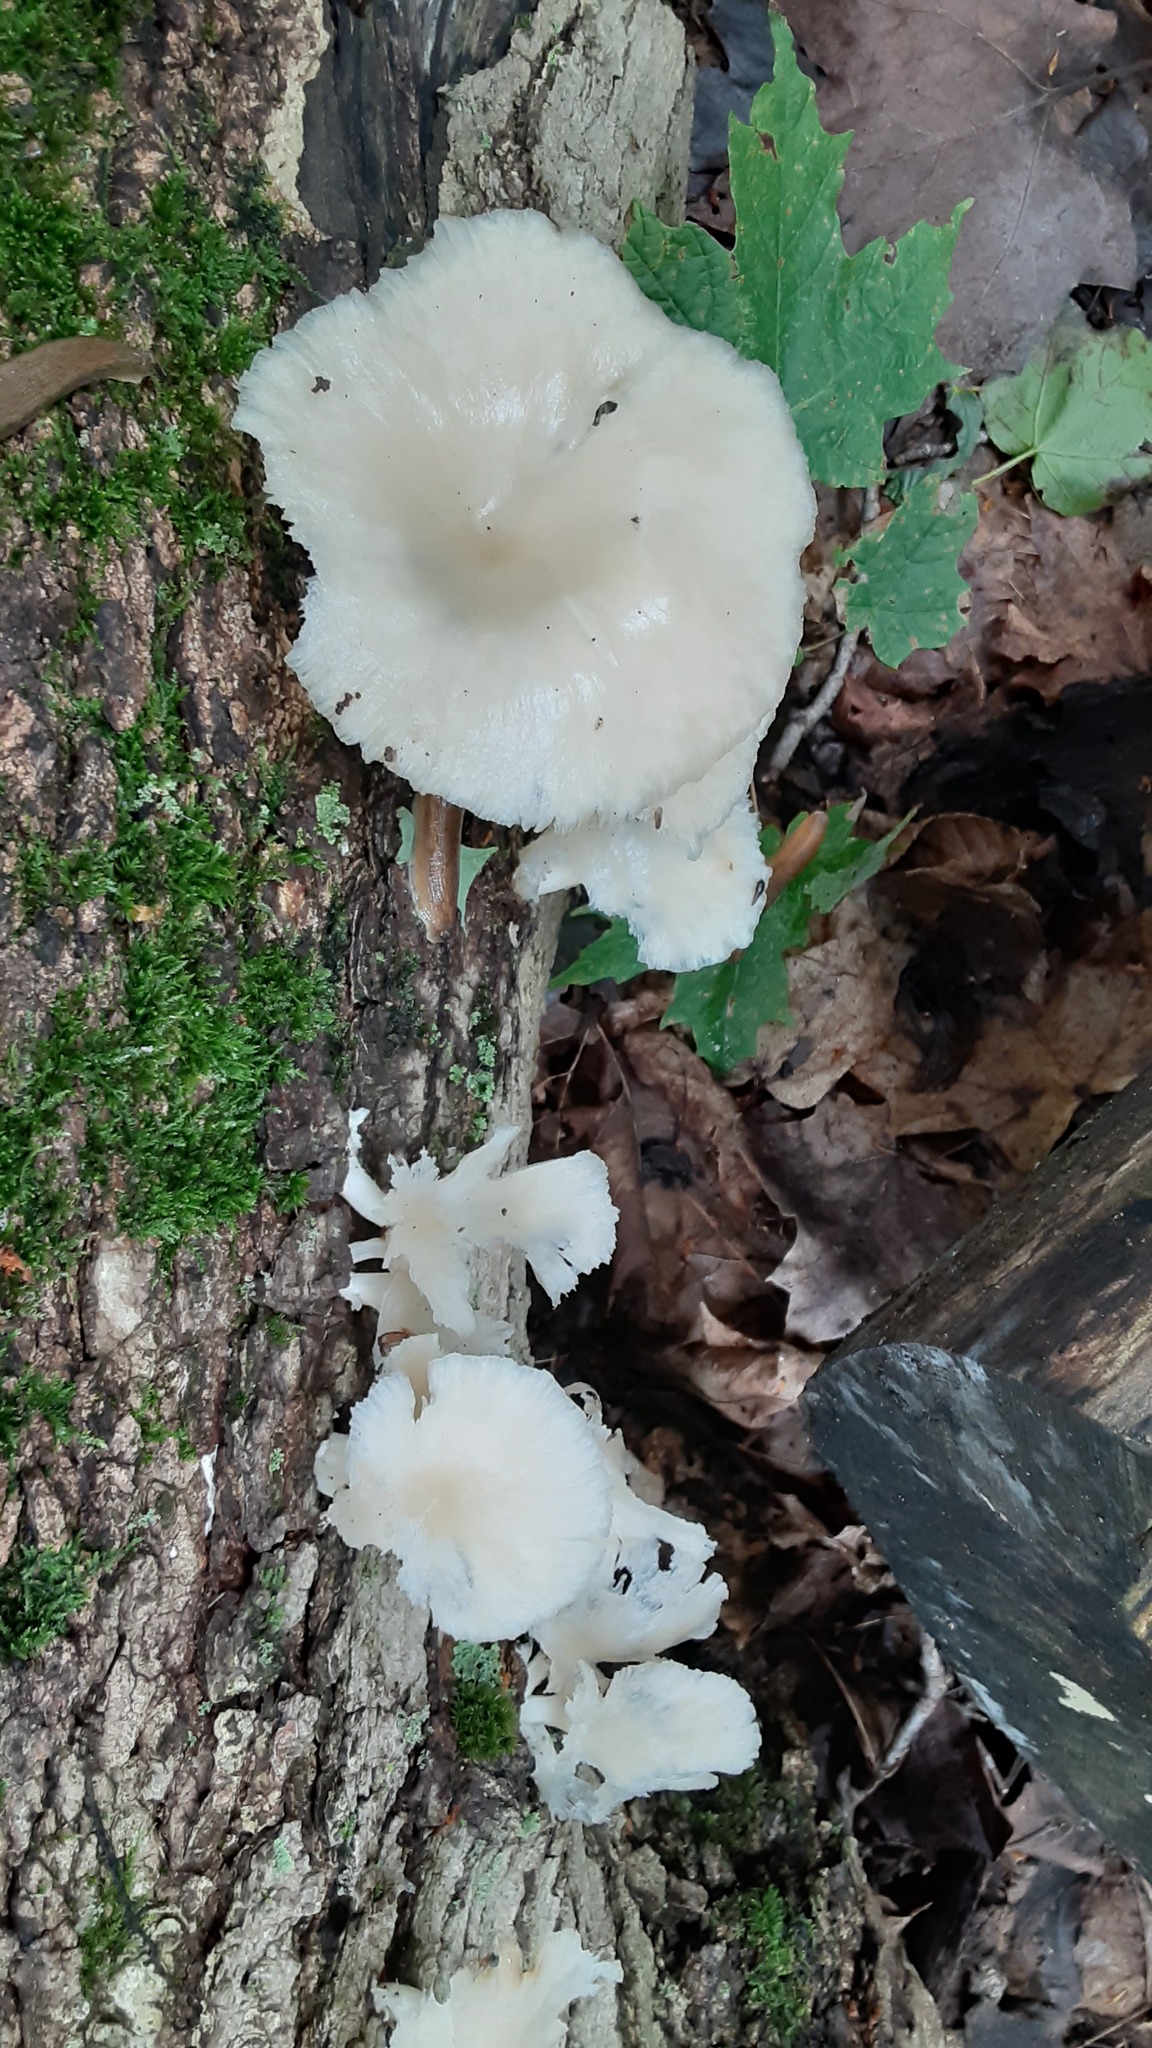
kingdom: Fungi
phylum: Basidiomycota
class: Agaricomycetes
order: Agaricales
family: Pleurotaceae
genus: Pleurotus
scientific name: Pleurotus pulmonarius
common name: Pale oyster
